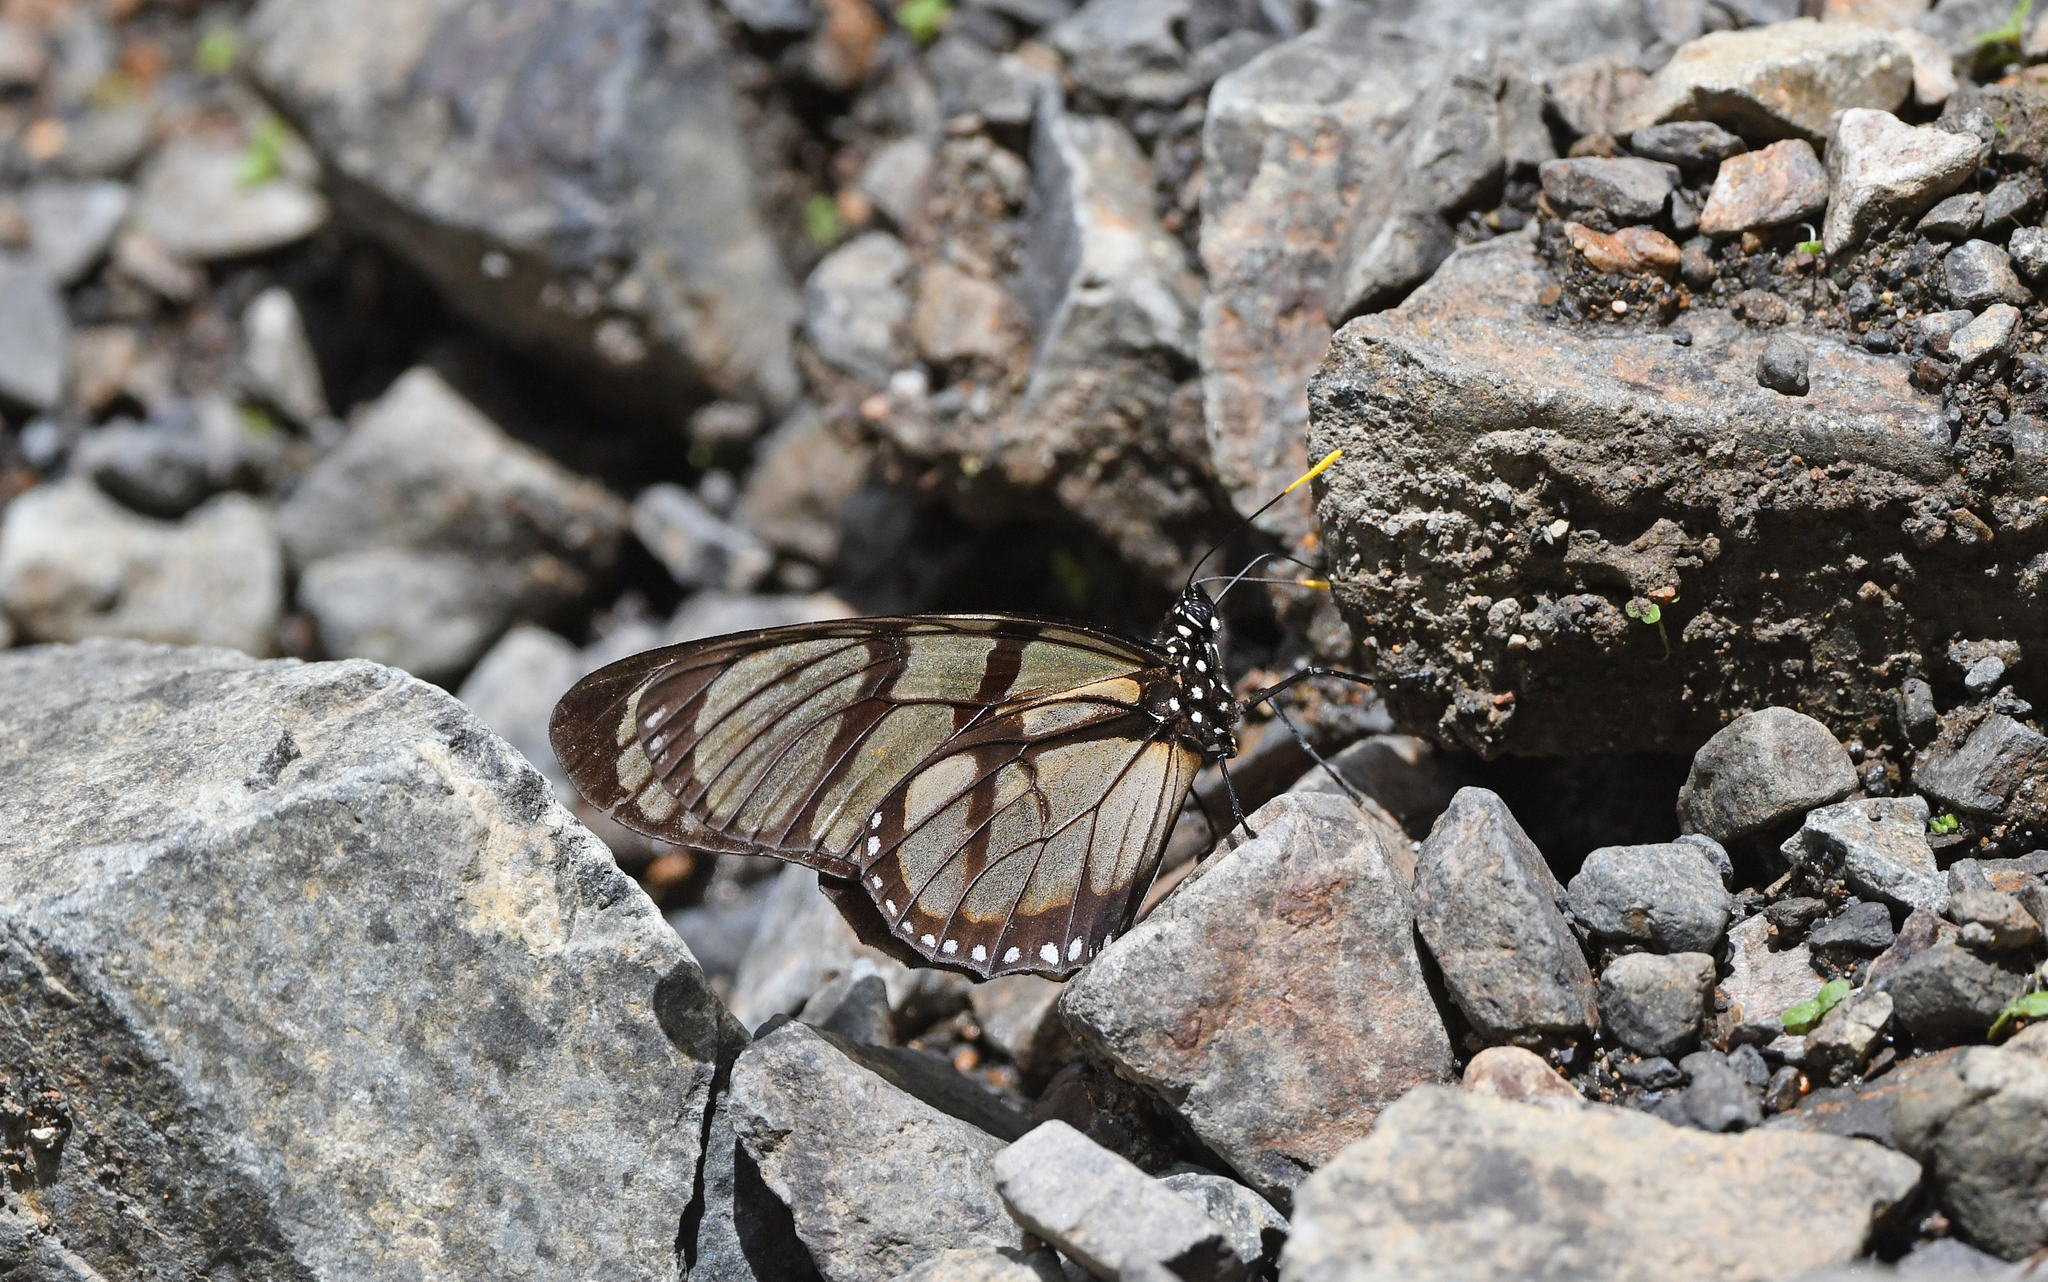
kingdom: Animalia
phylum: Arthropoda
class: Insecta
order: Lepidoptera
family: Nymphalidae
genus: Lycorea
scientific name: Lycorea ilione
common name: Clearwing mimic-queen
